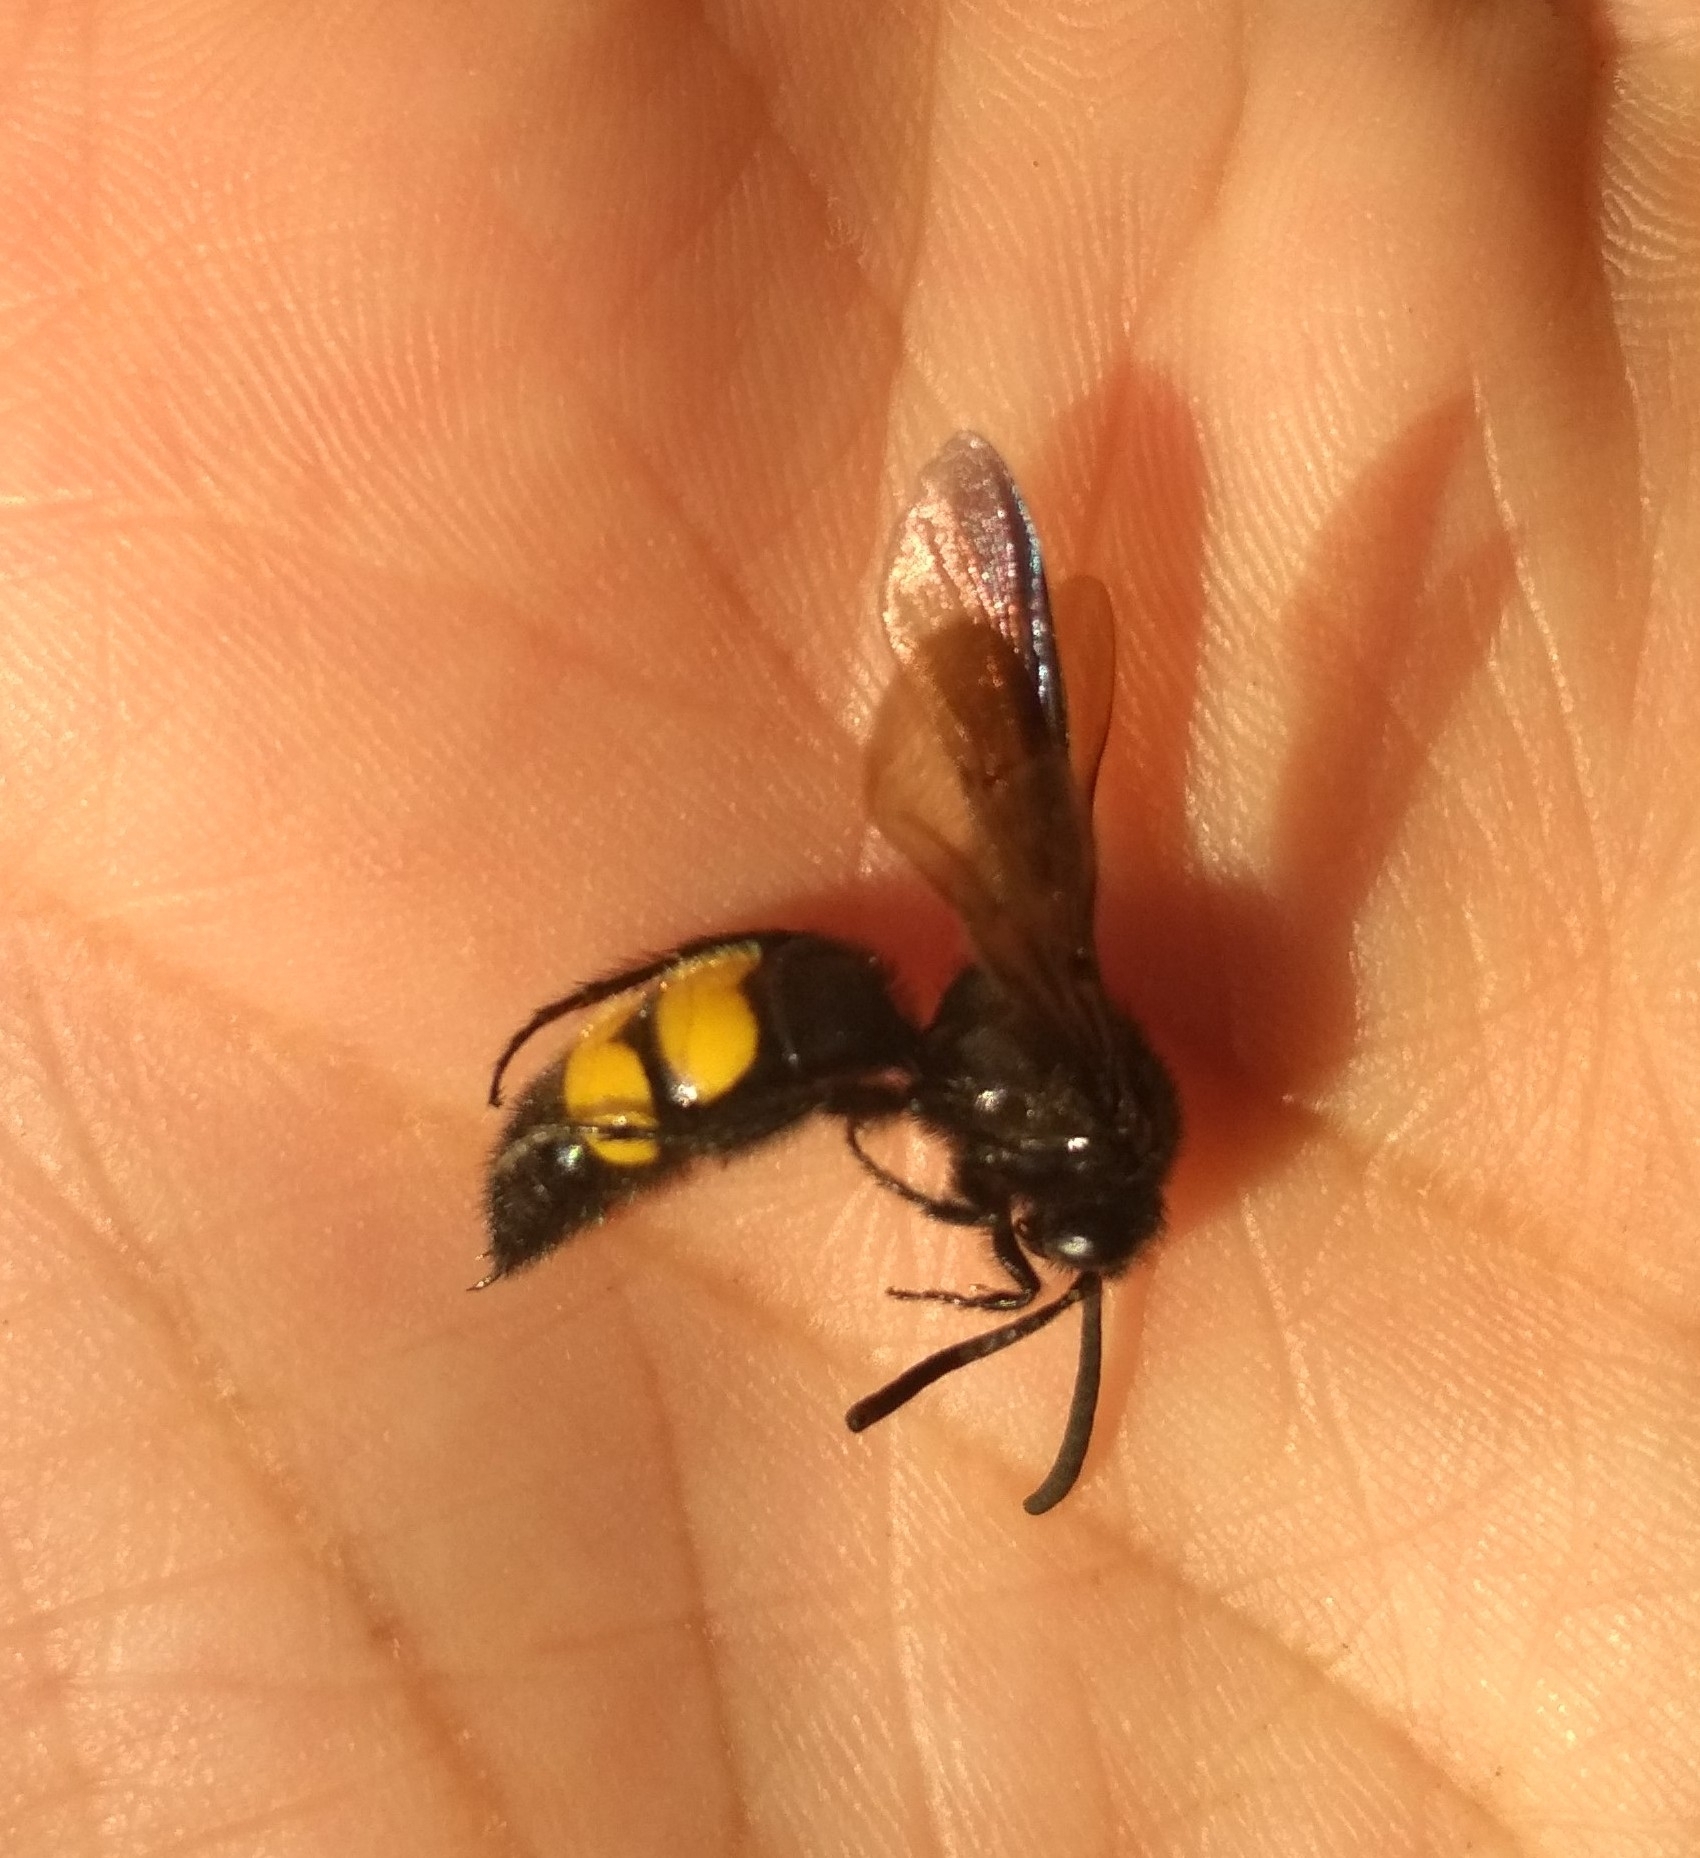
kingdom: Animalia
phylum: Arthropoda
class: Insecta
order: Hymenoptera
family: Scoliidae
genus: Scolia
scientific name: Scolia hirta
